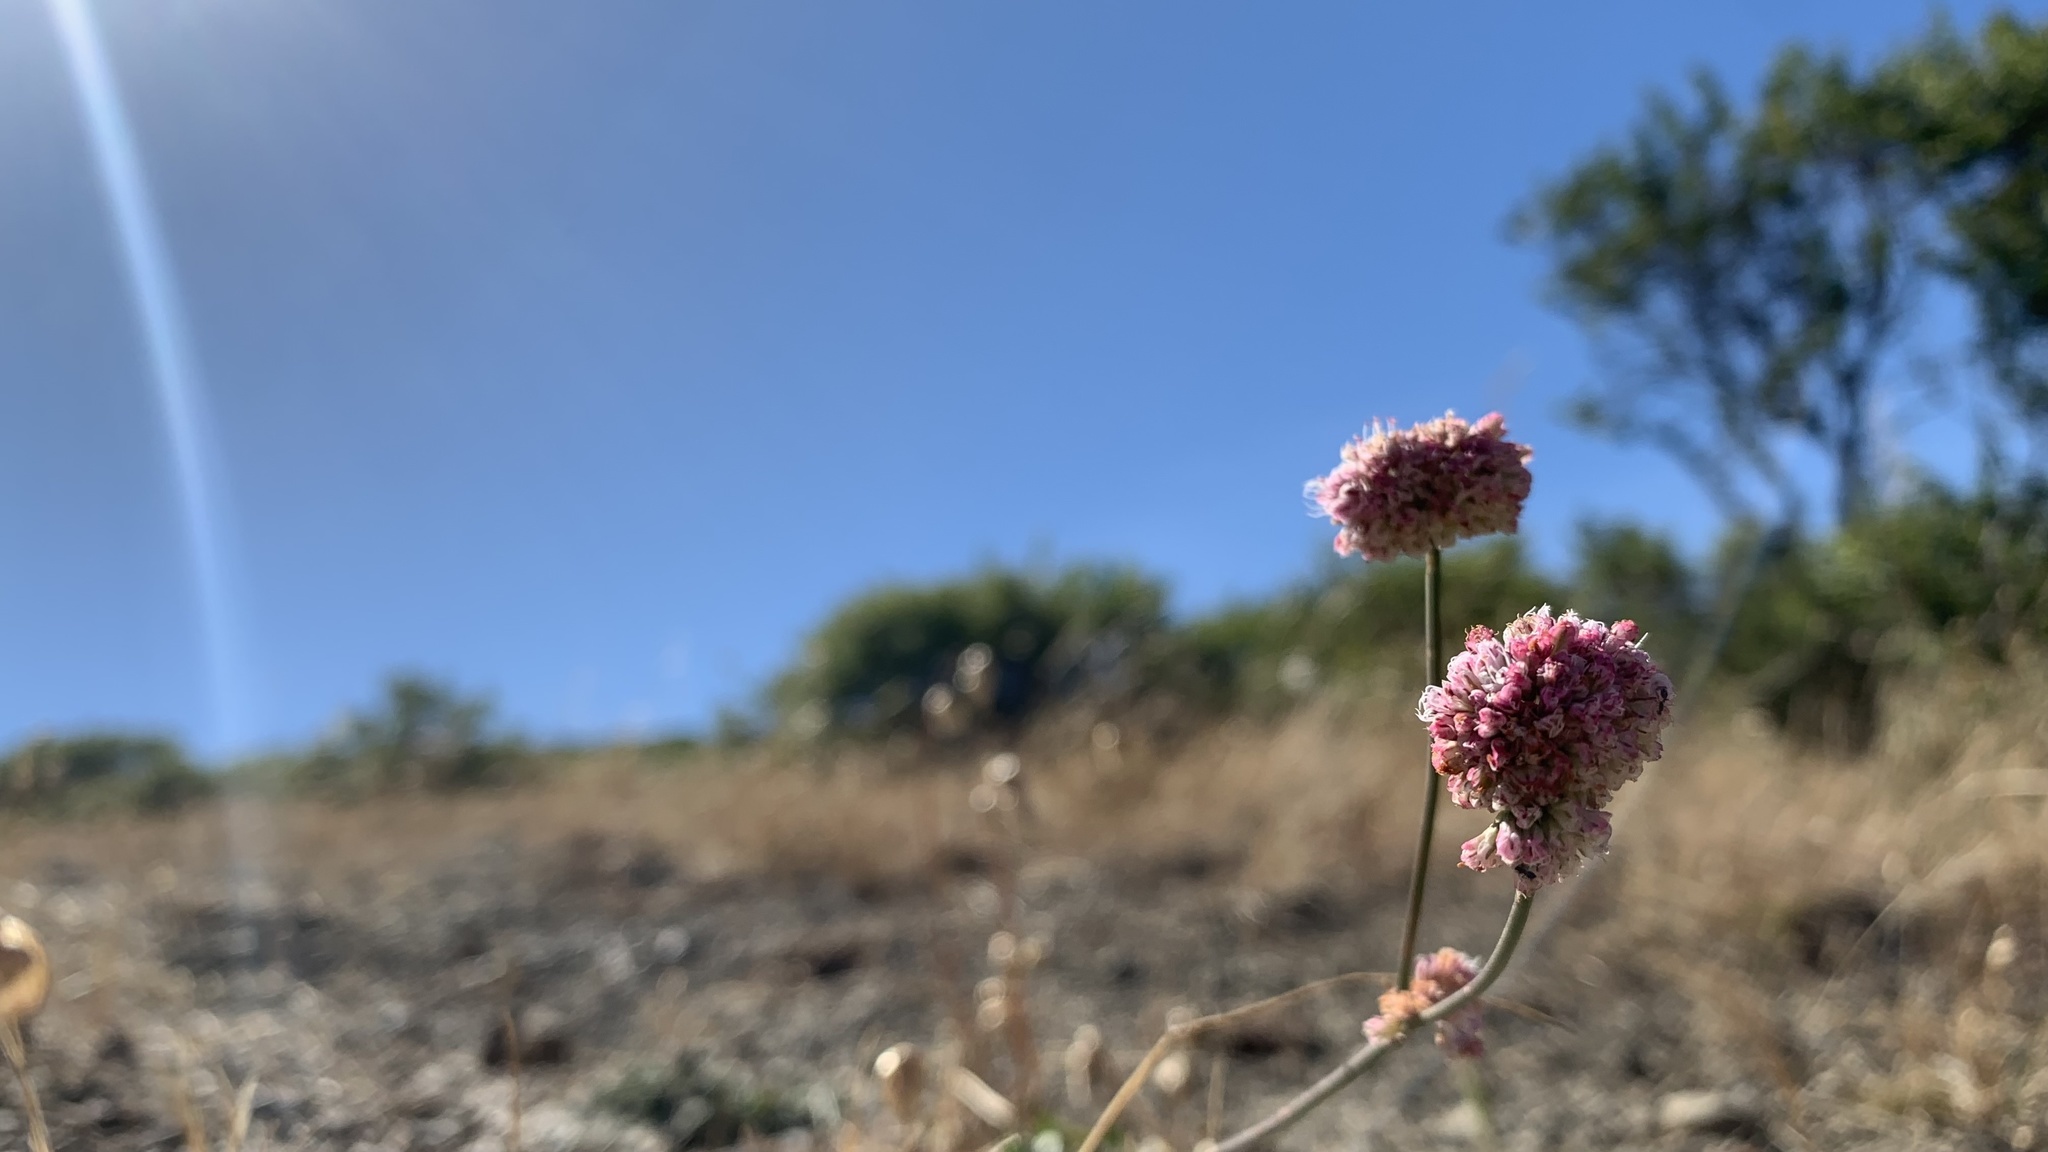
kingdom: Plantae
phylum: Tracheophyta
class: Magnoliopsida
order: Caryophyllales
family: Polygonaceae
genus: Eriogonum
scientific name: Eriogonum nudum
